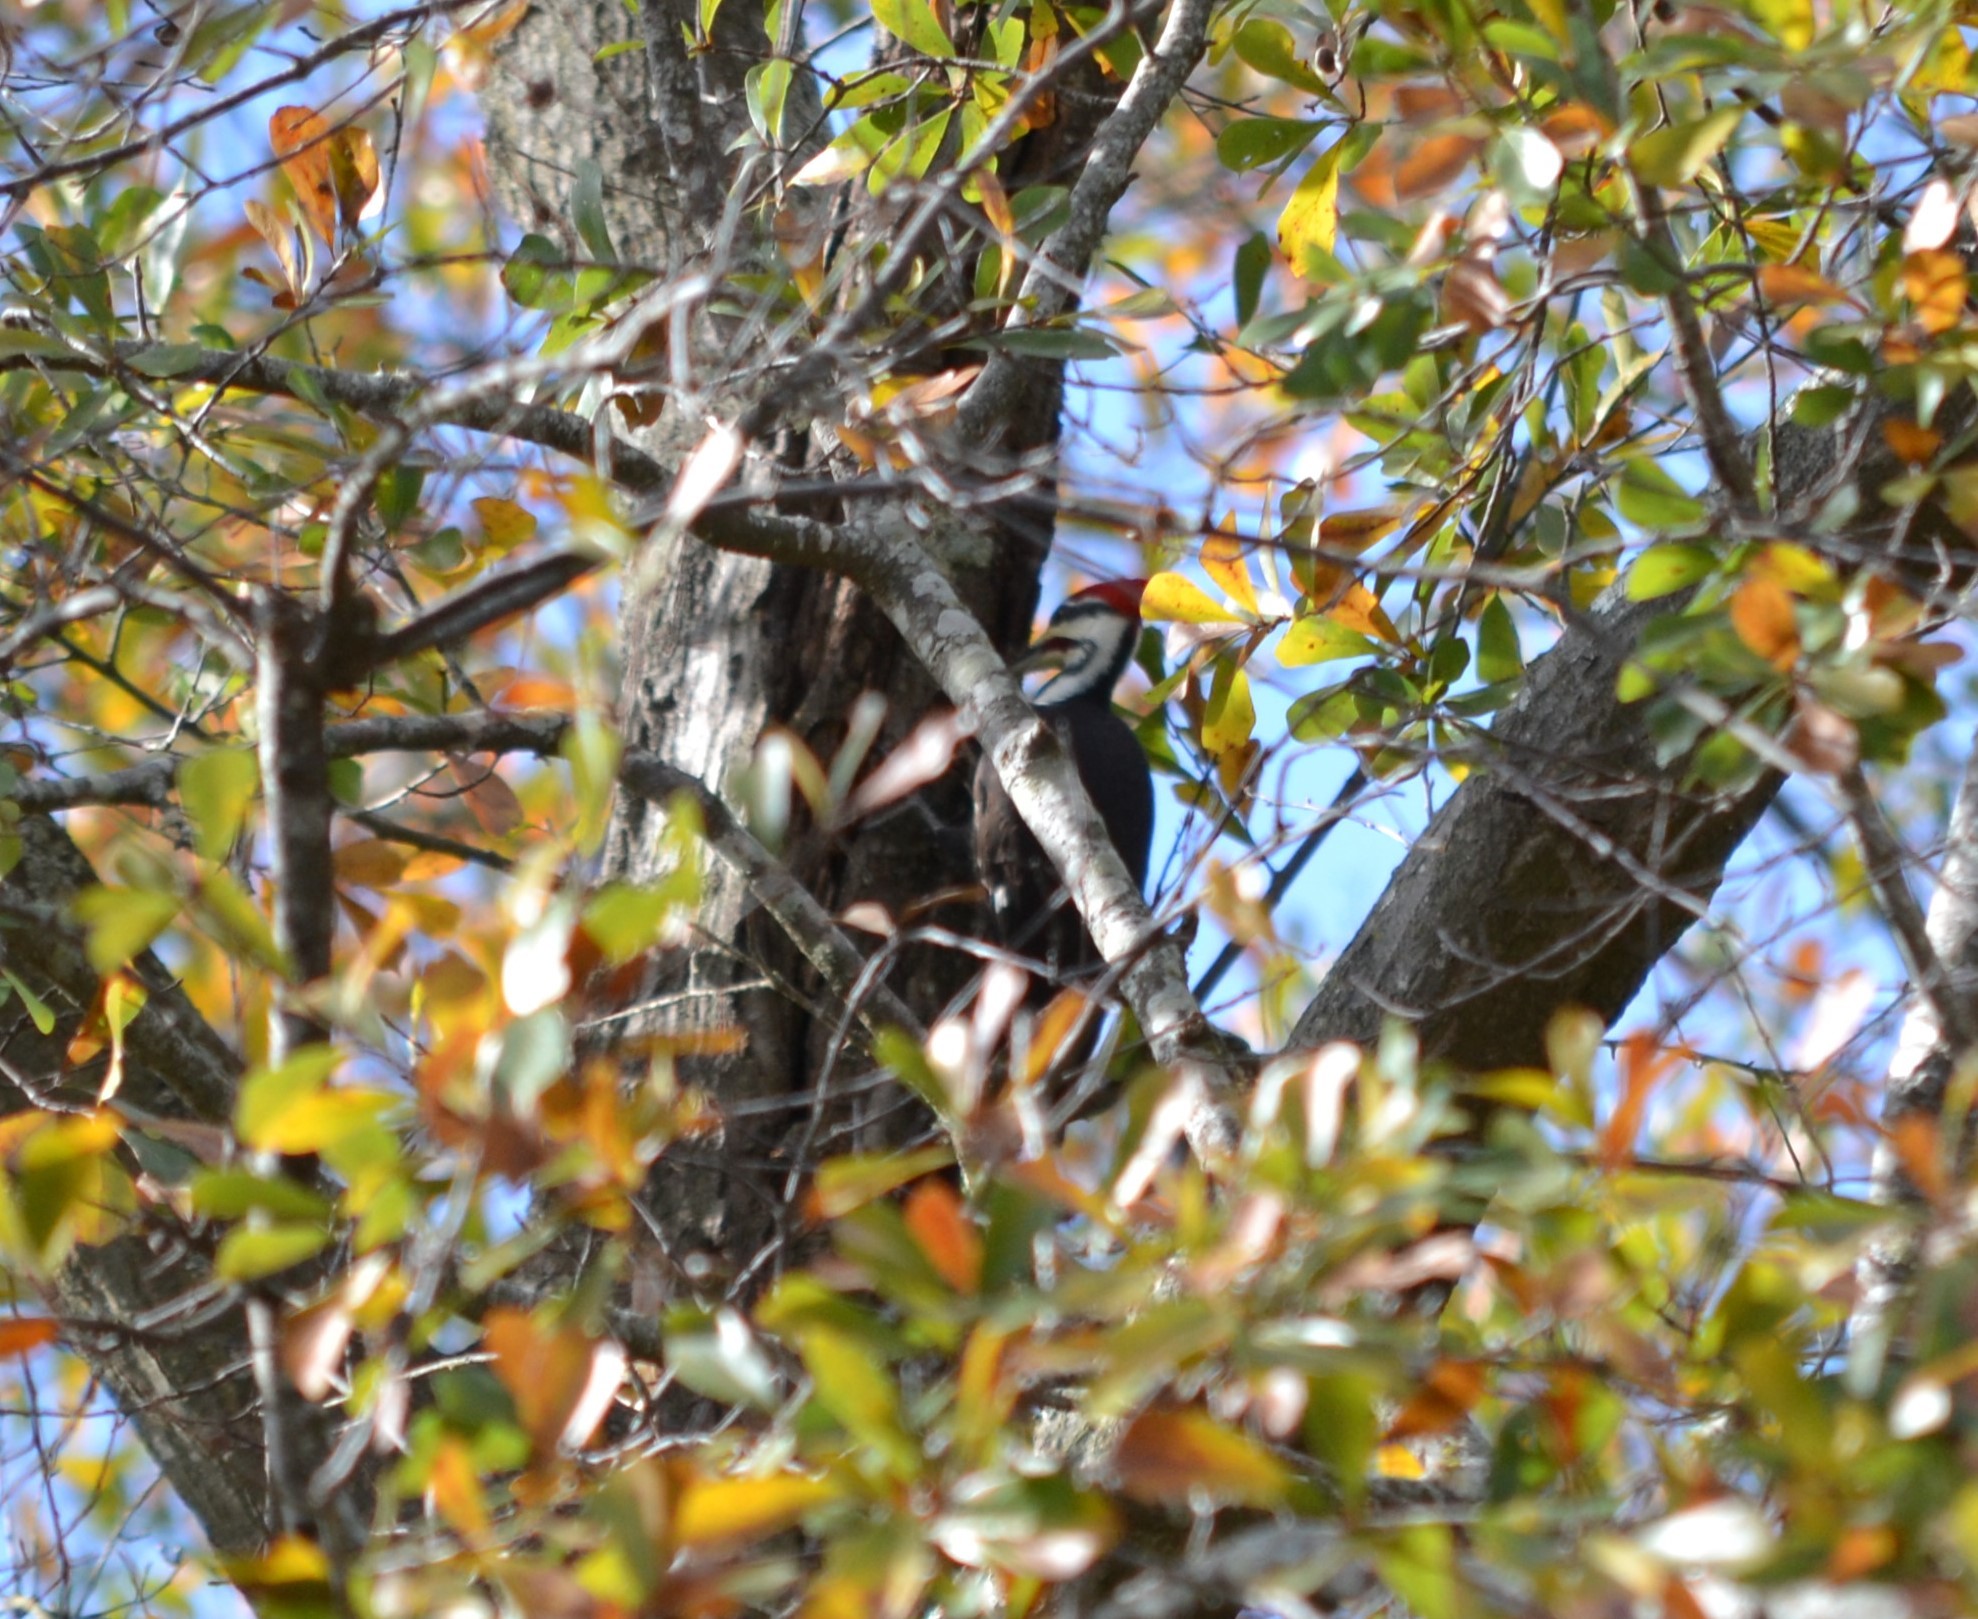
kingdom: Animalia
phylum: Chordata
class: Aves
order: Piciformes
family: Picidae
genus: Dryocopus
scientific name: Dryocopus pileatus
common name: Pileated woodpecker
